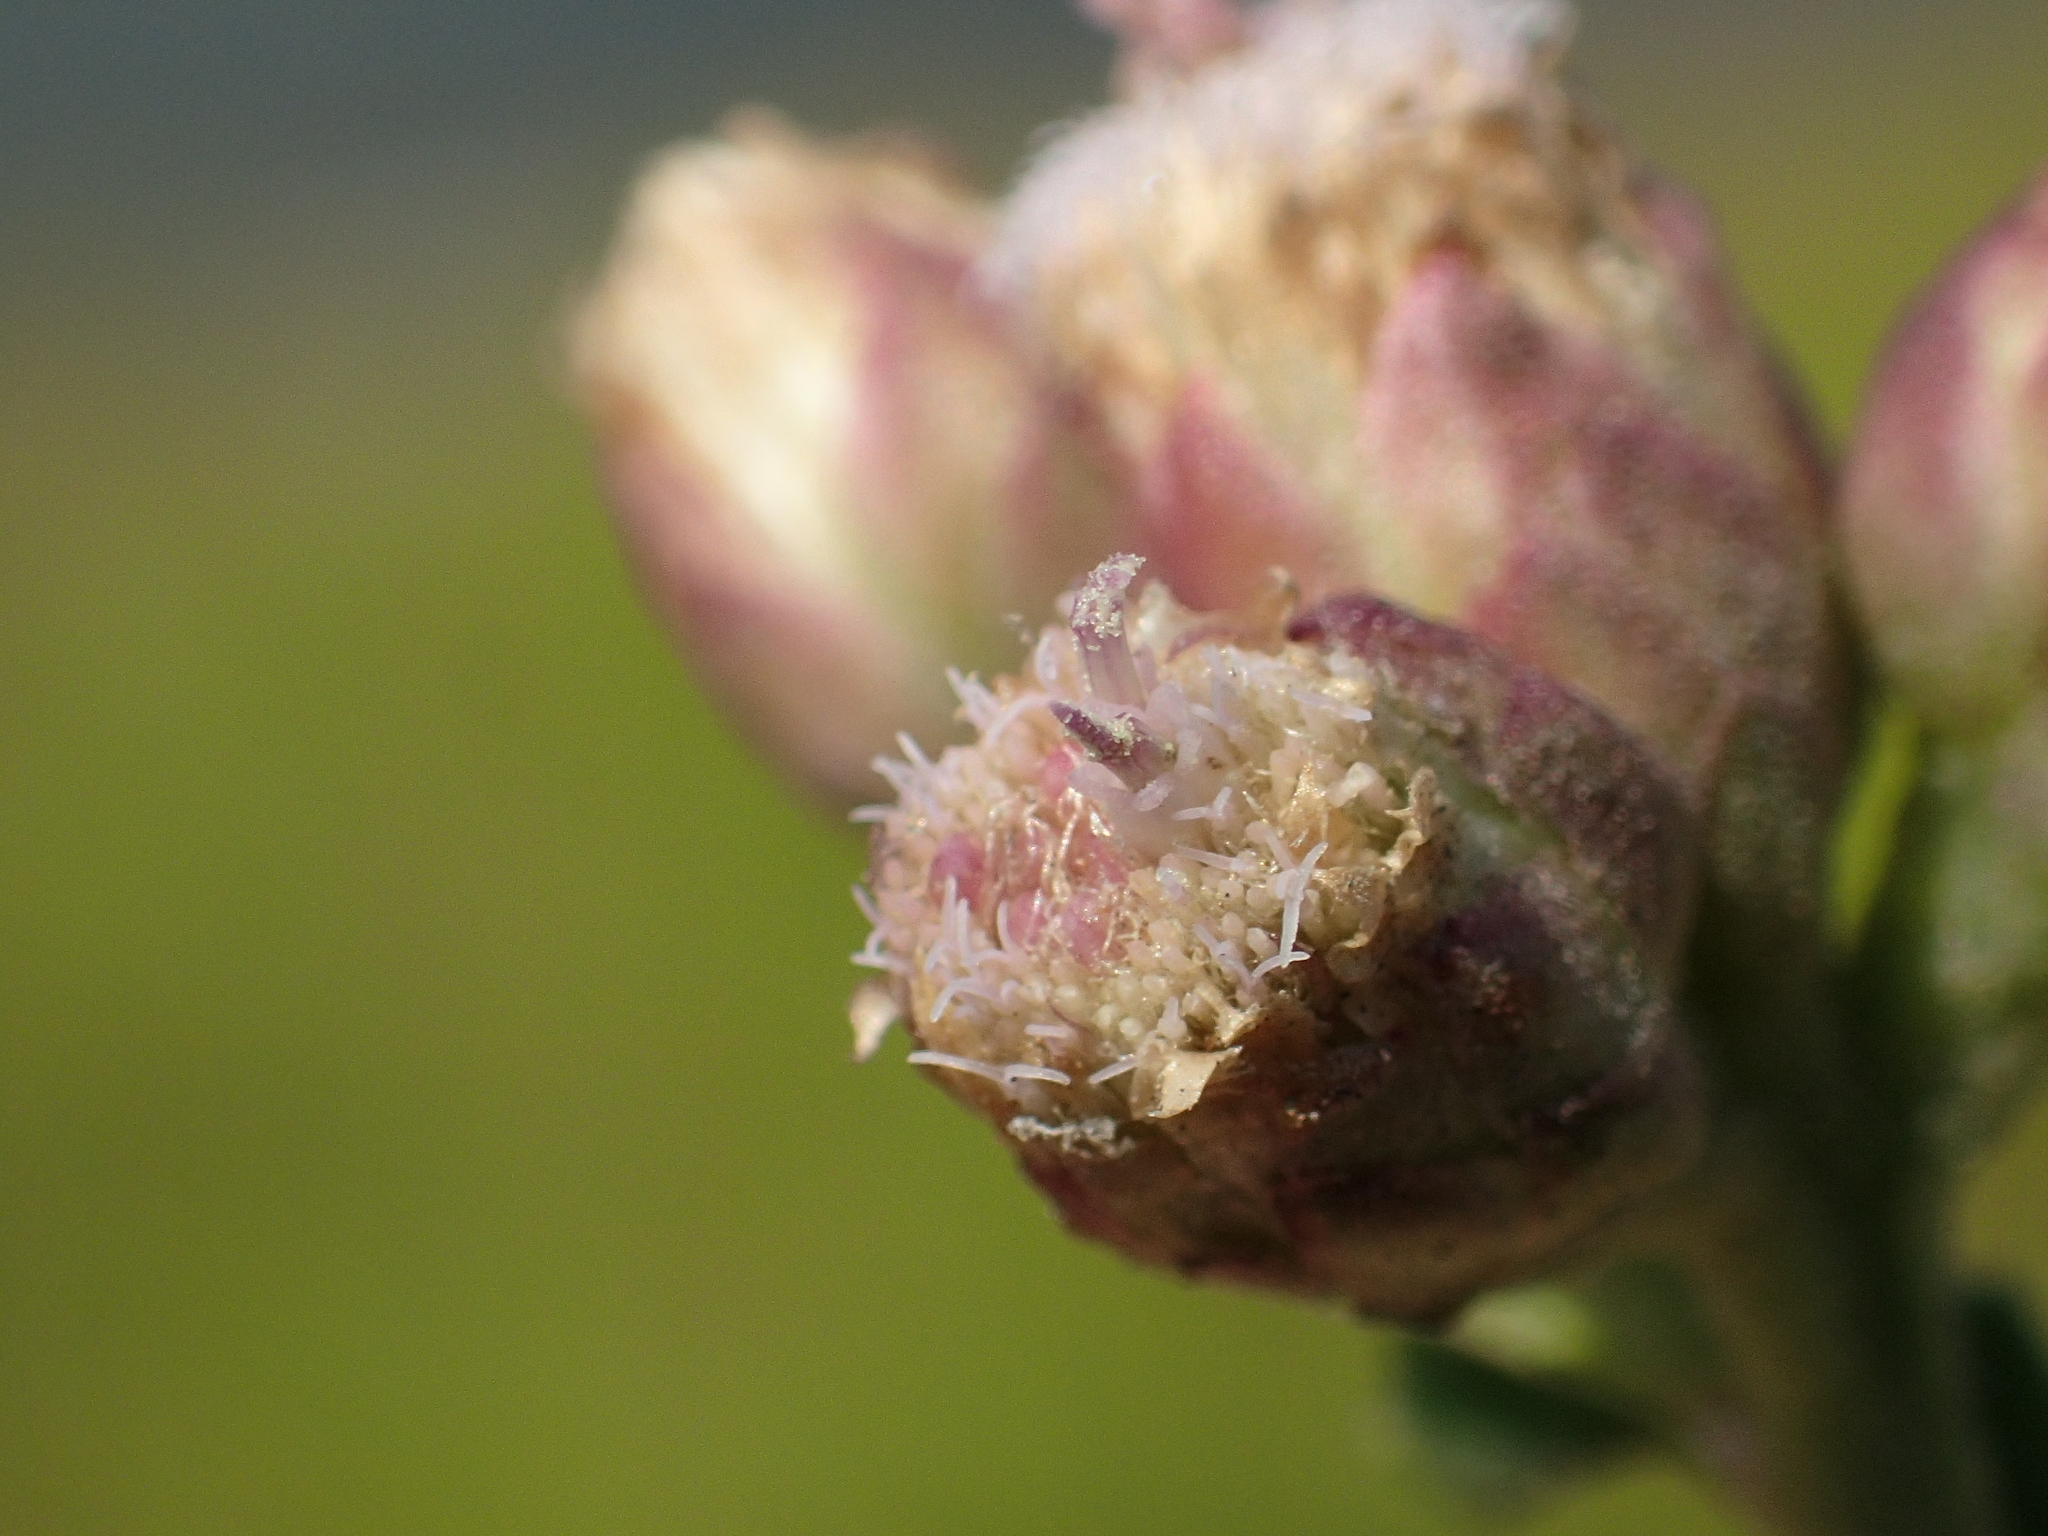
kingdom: Plantae
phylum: Tracheophyta
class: Magnoliopsida
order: Asterales
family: Asteraceae
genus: Pluchea
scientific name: Pluchea pteropoda
